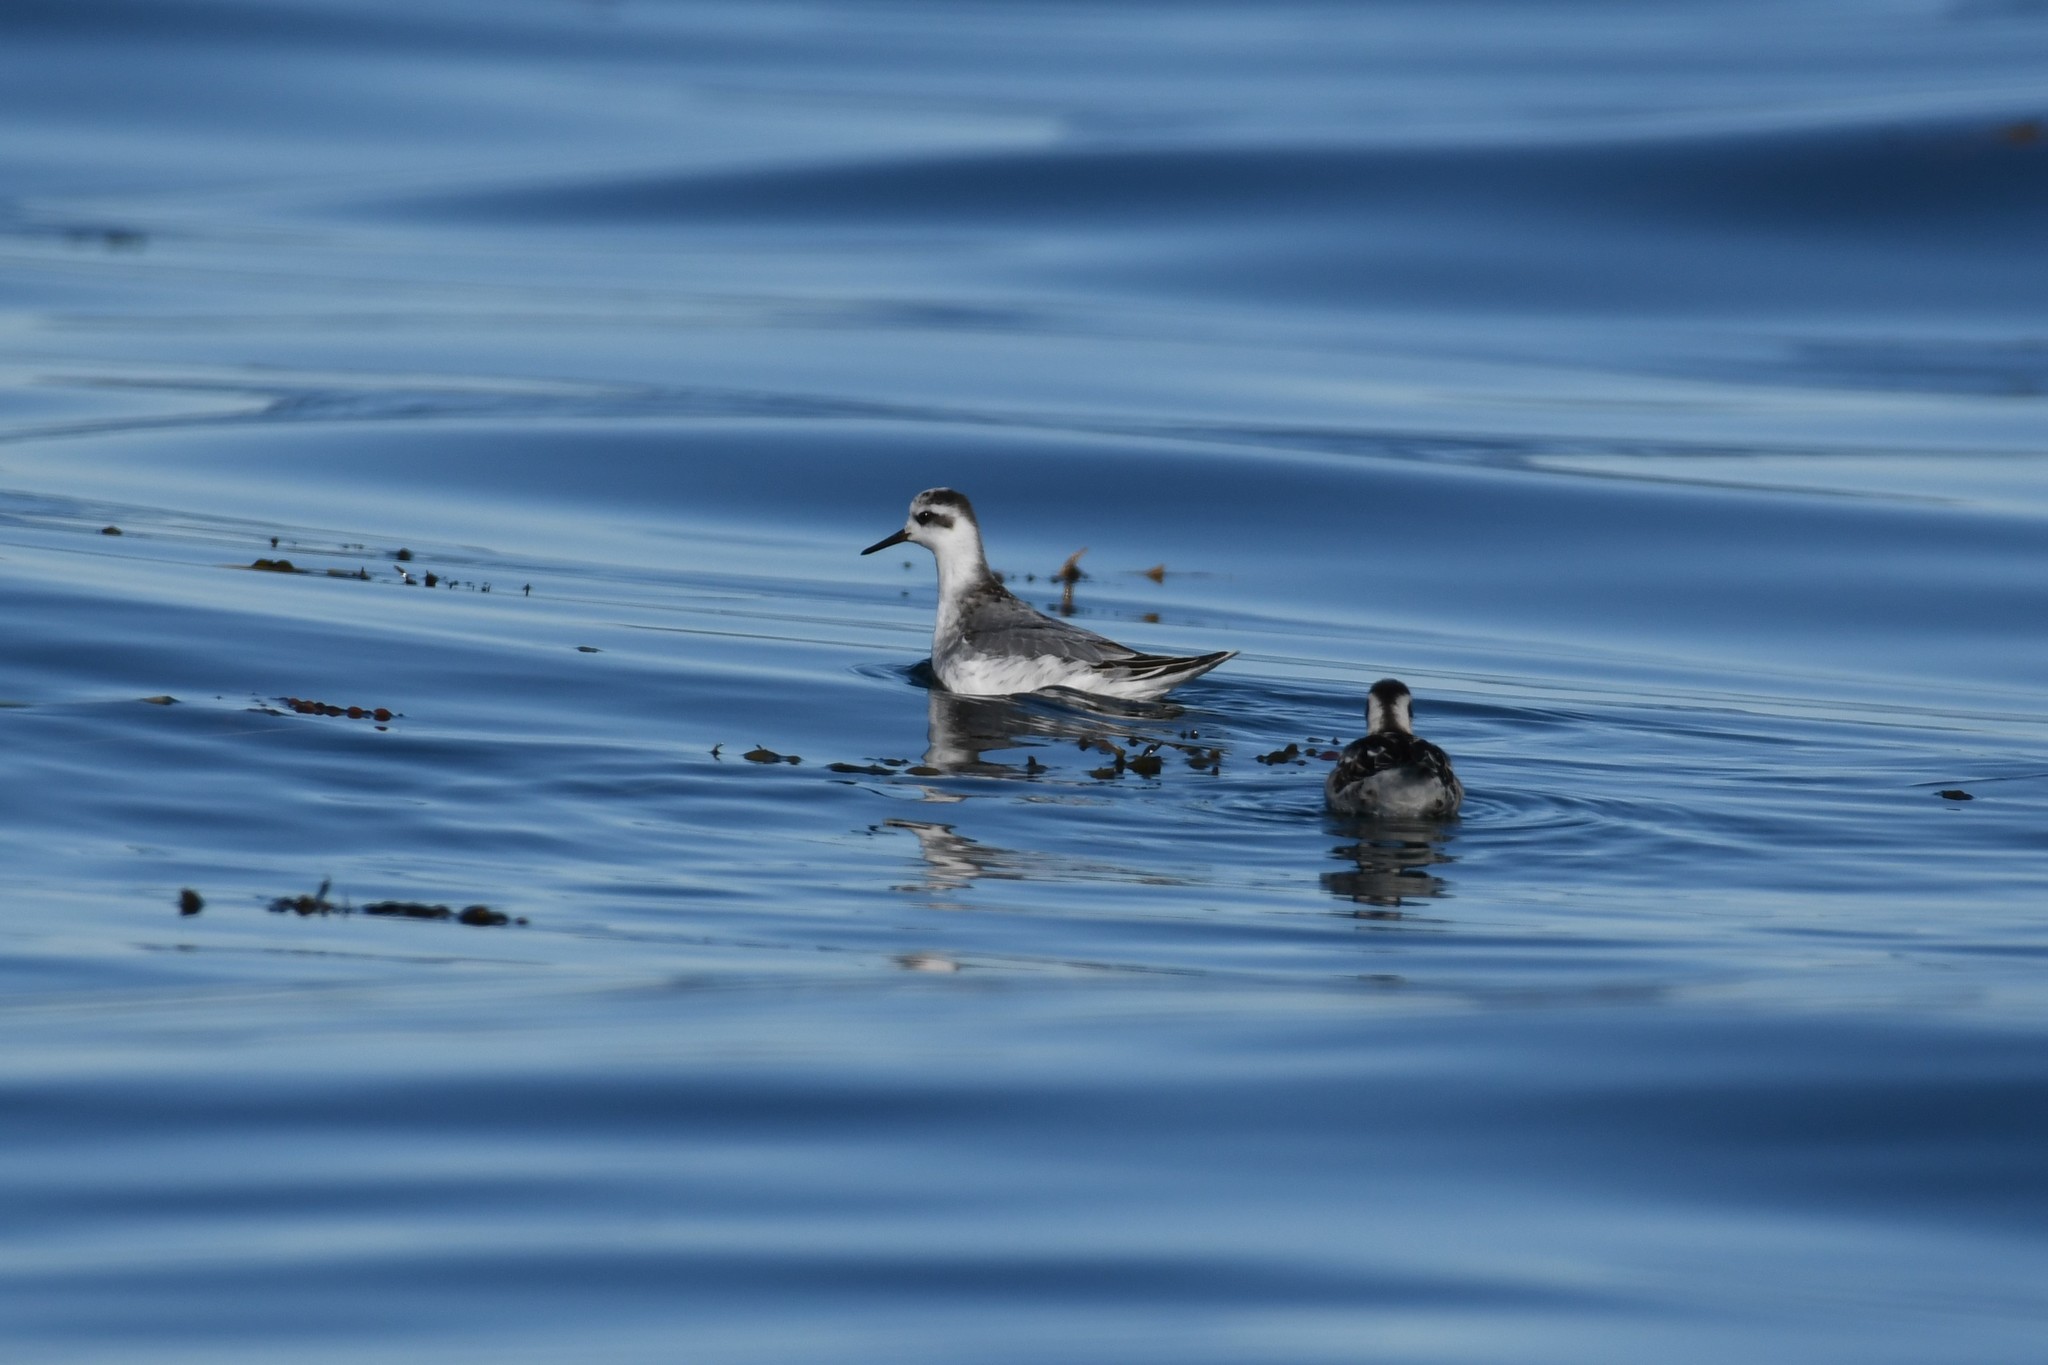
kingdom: Animalia
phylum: Chordata
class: Aves
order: Charadriiformes
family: Scolopacidae
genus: Phalaropus
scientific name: Phalaropus fulicarius
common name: Red phalarope
